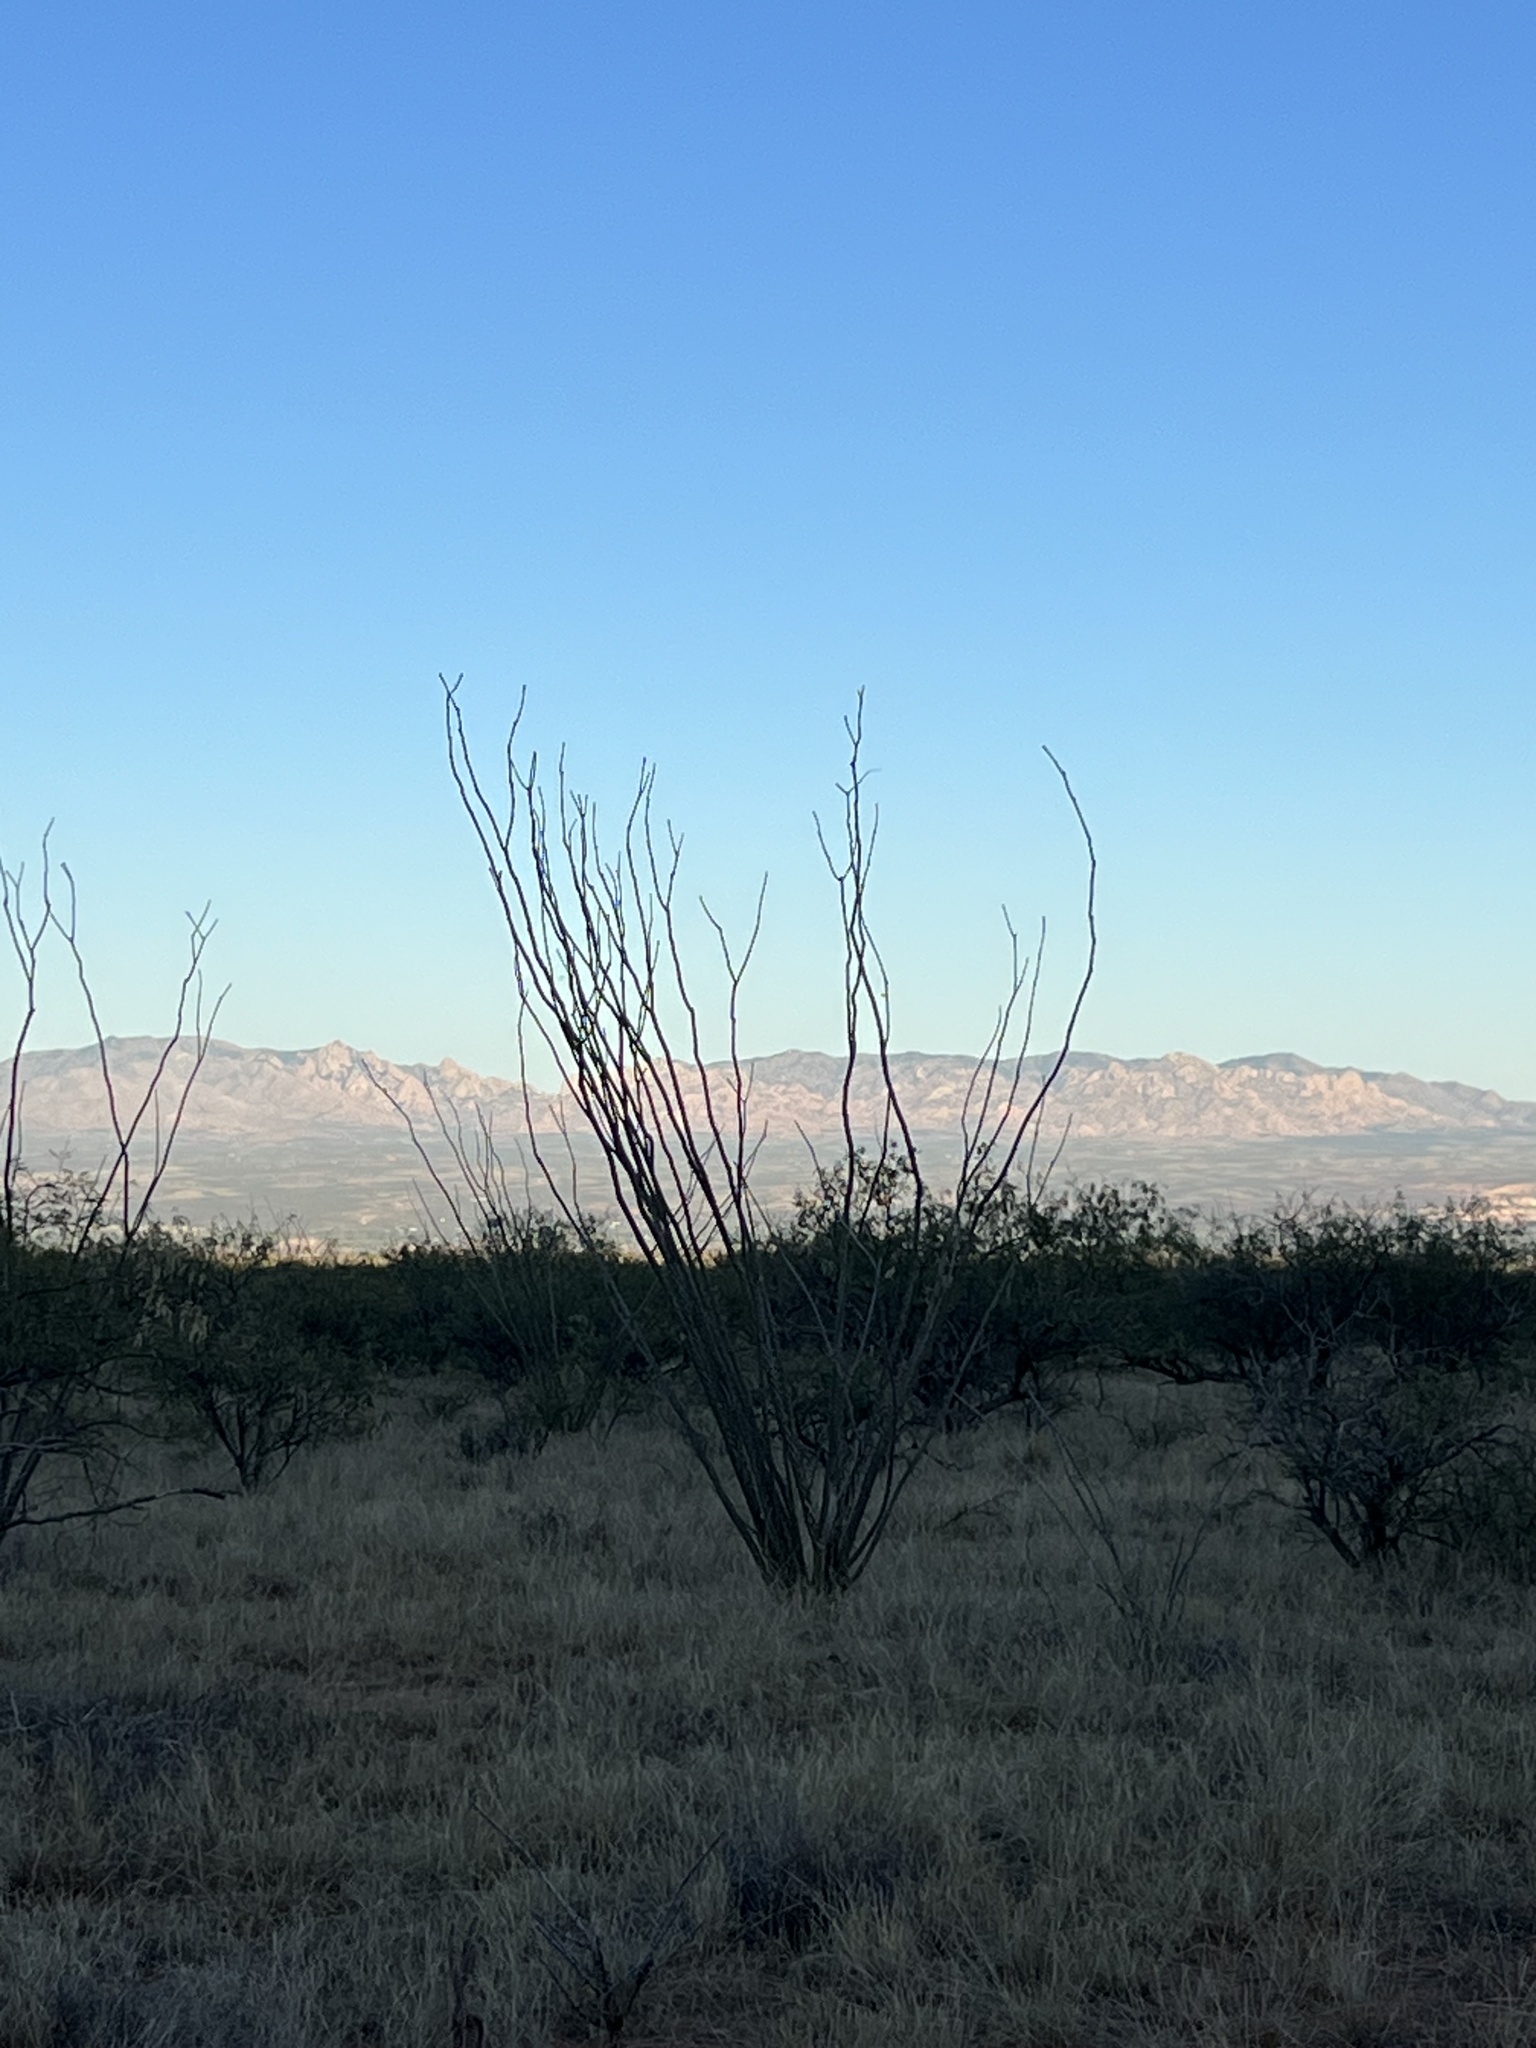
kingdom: Plantae
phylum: Tracheophyta
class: Magnoliopsida
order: Ericales
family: Fouquieriaceae
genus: Fouquieria
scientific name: Fouquieria splendens
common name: Vine-cactus
